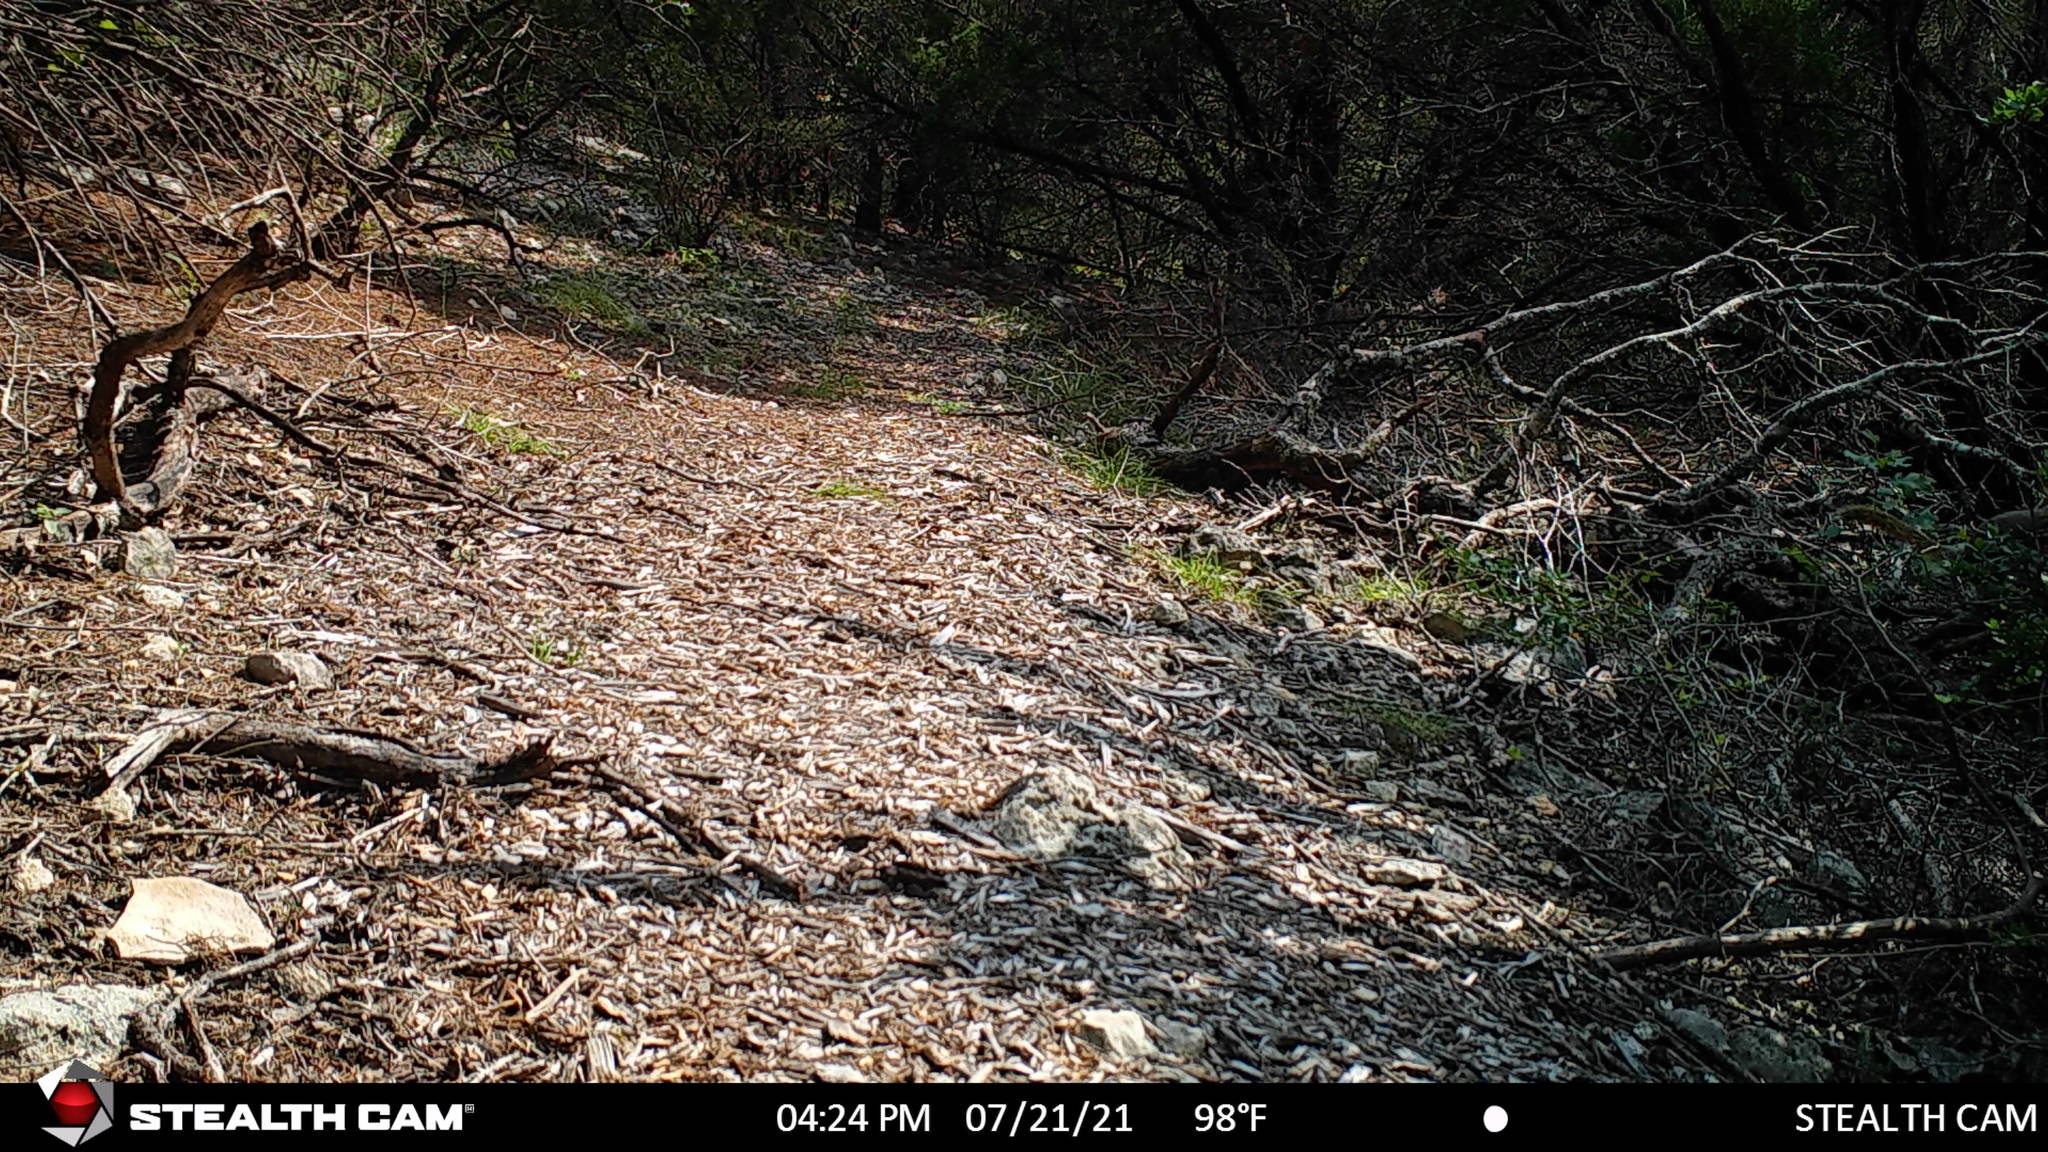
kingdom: Animalia
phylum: Chordata
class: Mammalia
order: Rodentia
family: Sciuridae
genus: Sciurus
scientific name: Sciurus niger
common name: Fox squirrel
